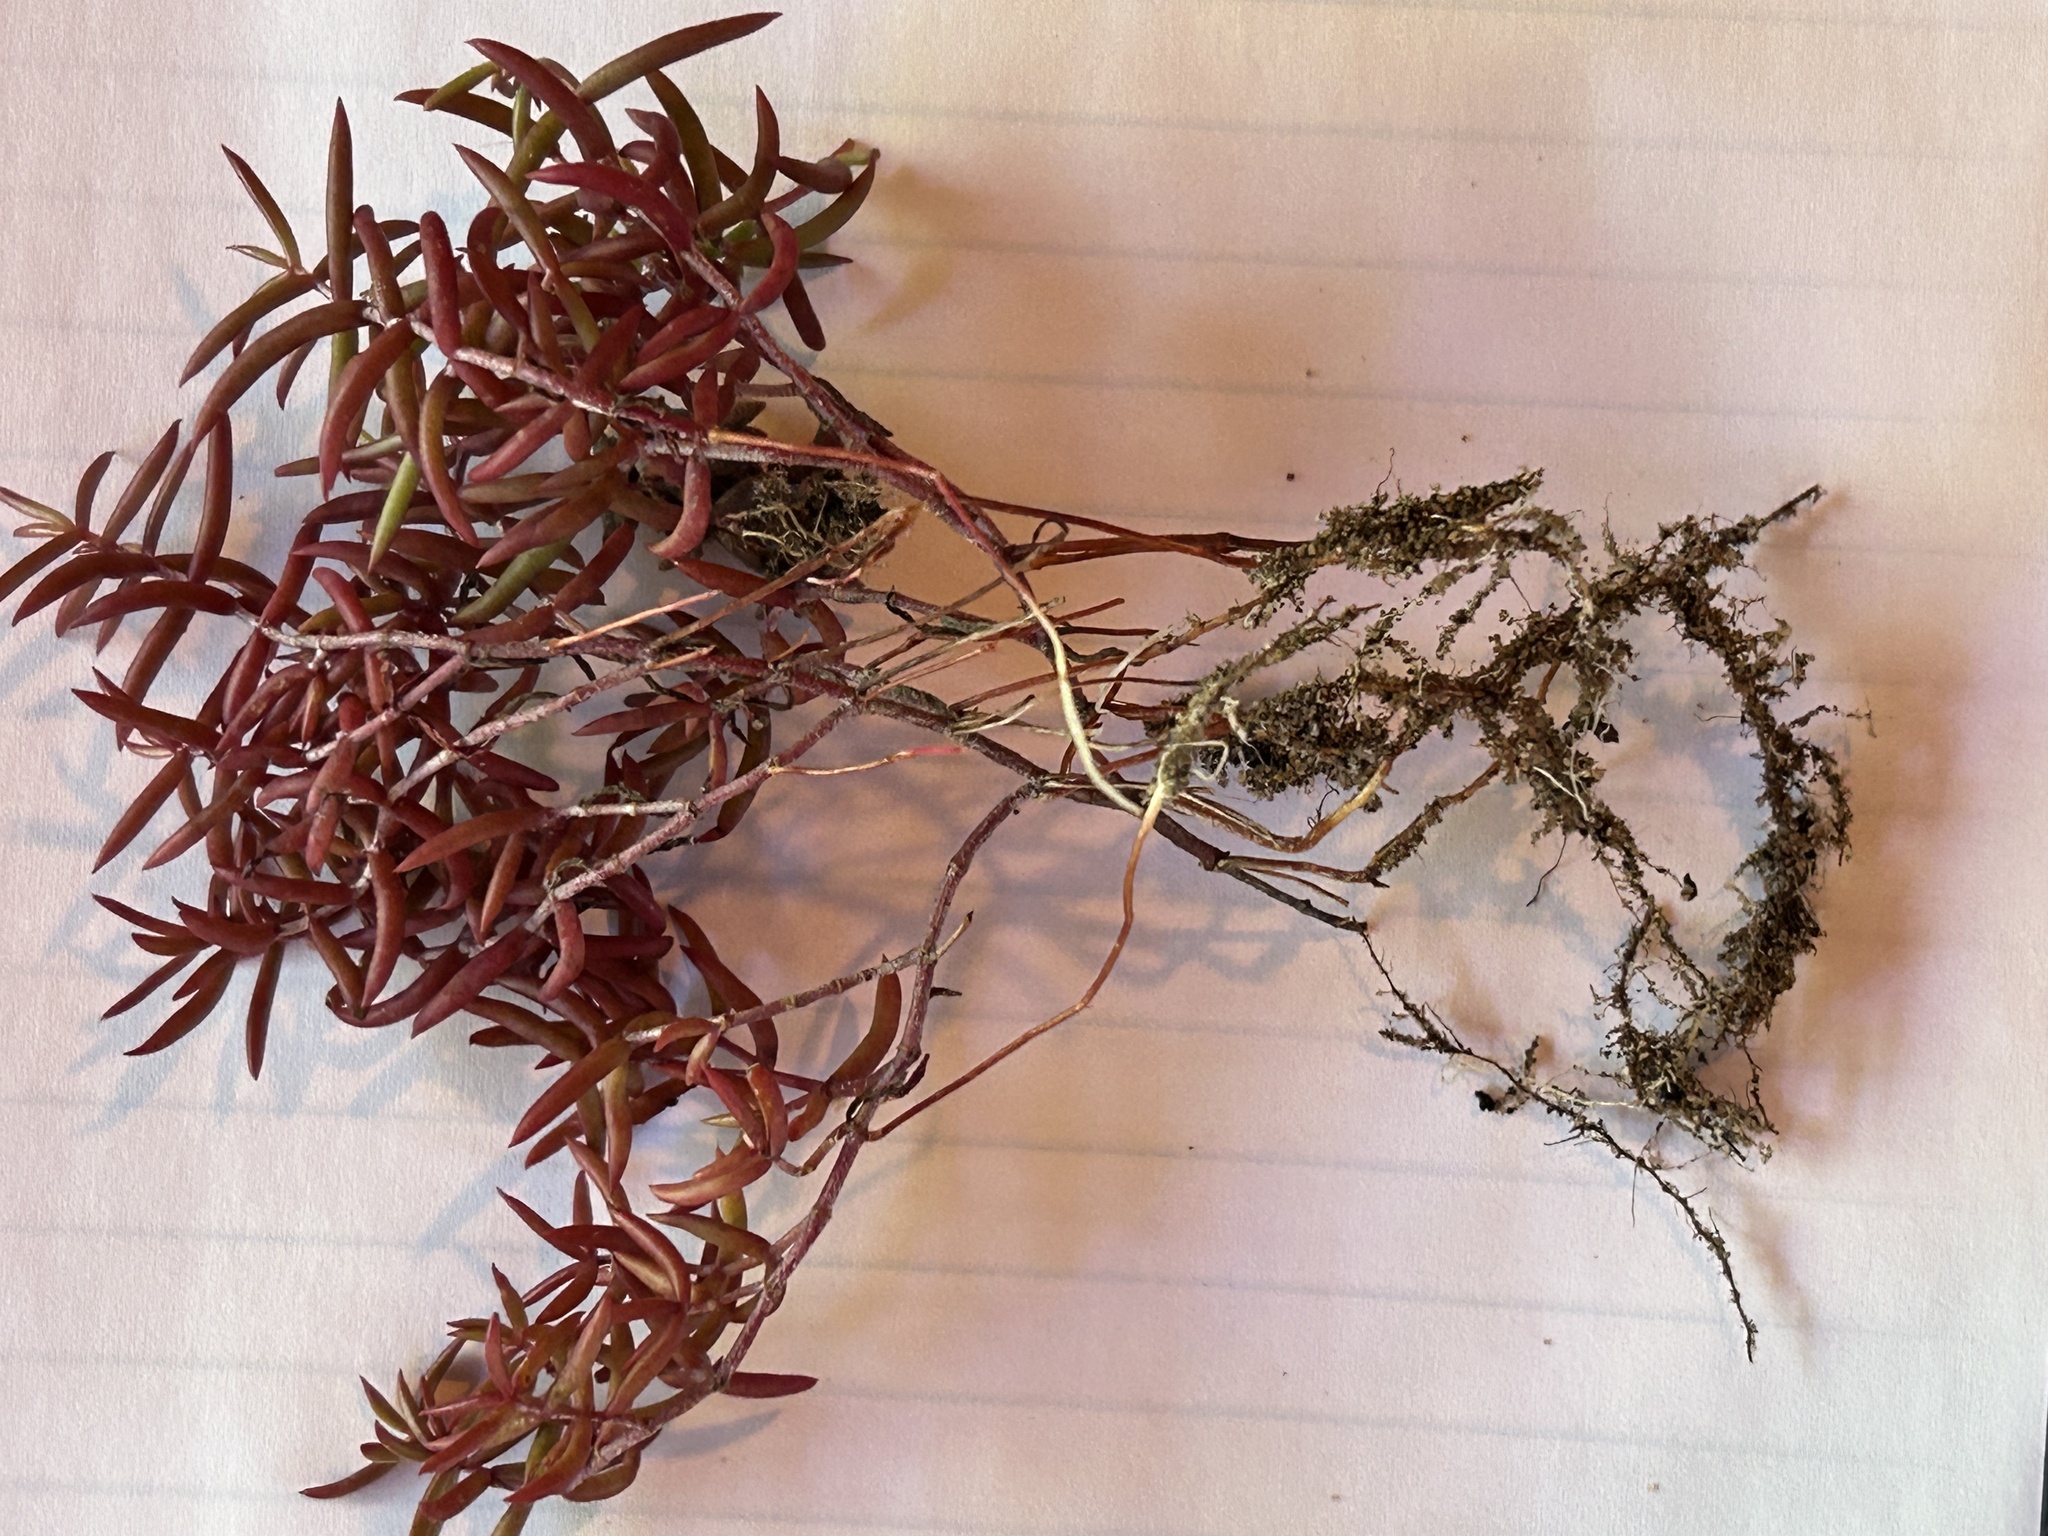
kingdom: Plantae
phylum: Tracheophyta
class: Magnoliopsida
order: Saxifragales
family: Crassulaceae
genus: Crassula
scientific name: Crassula expansa
